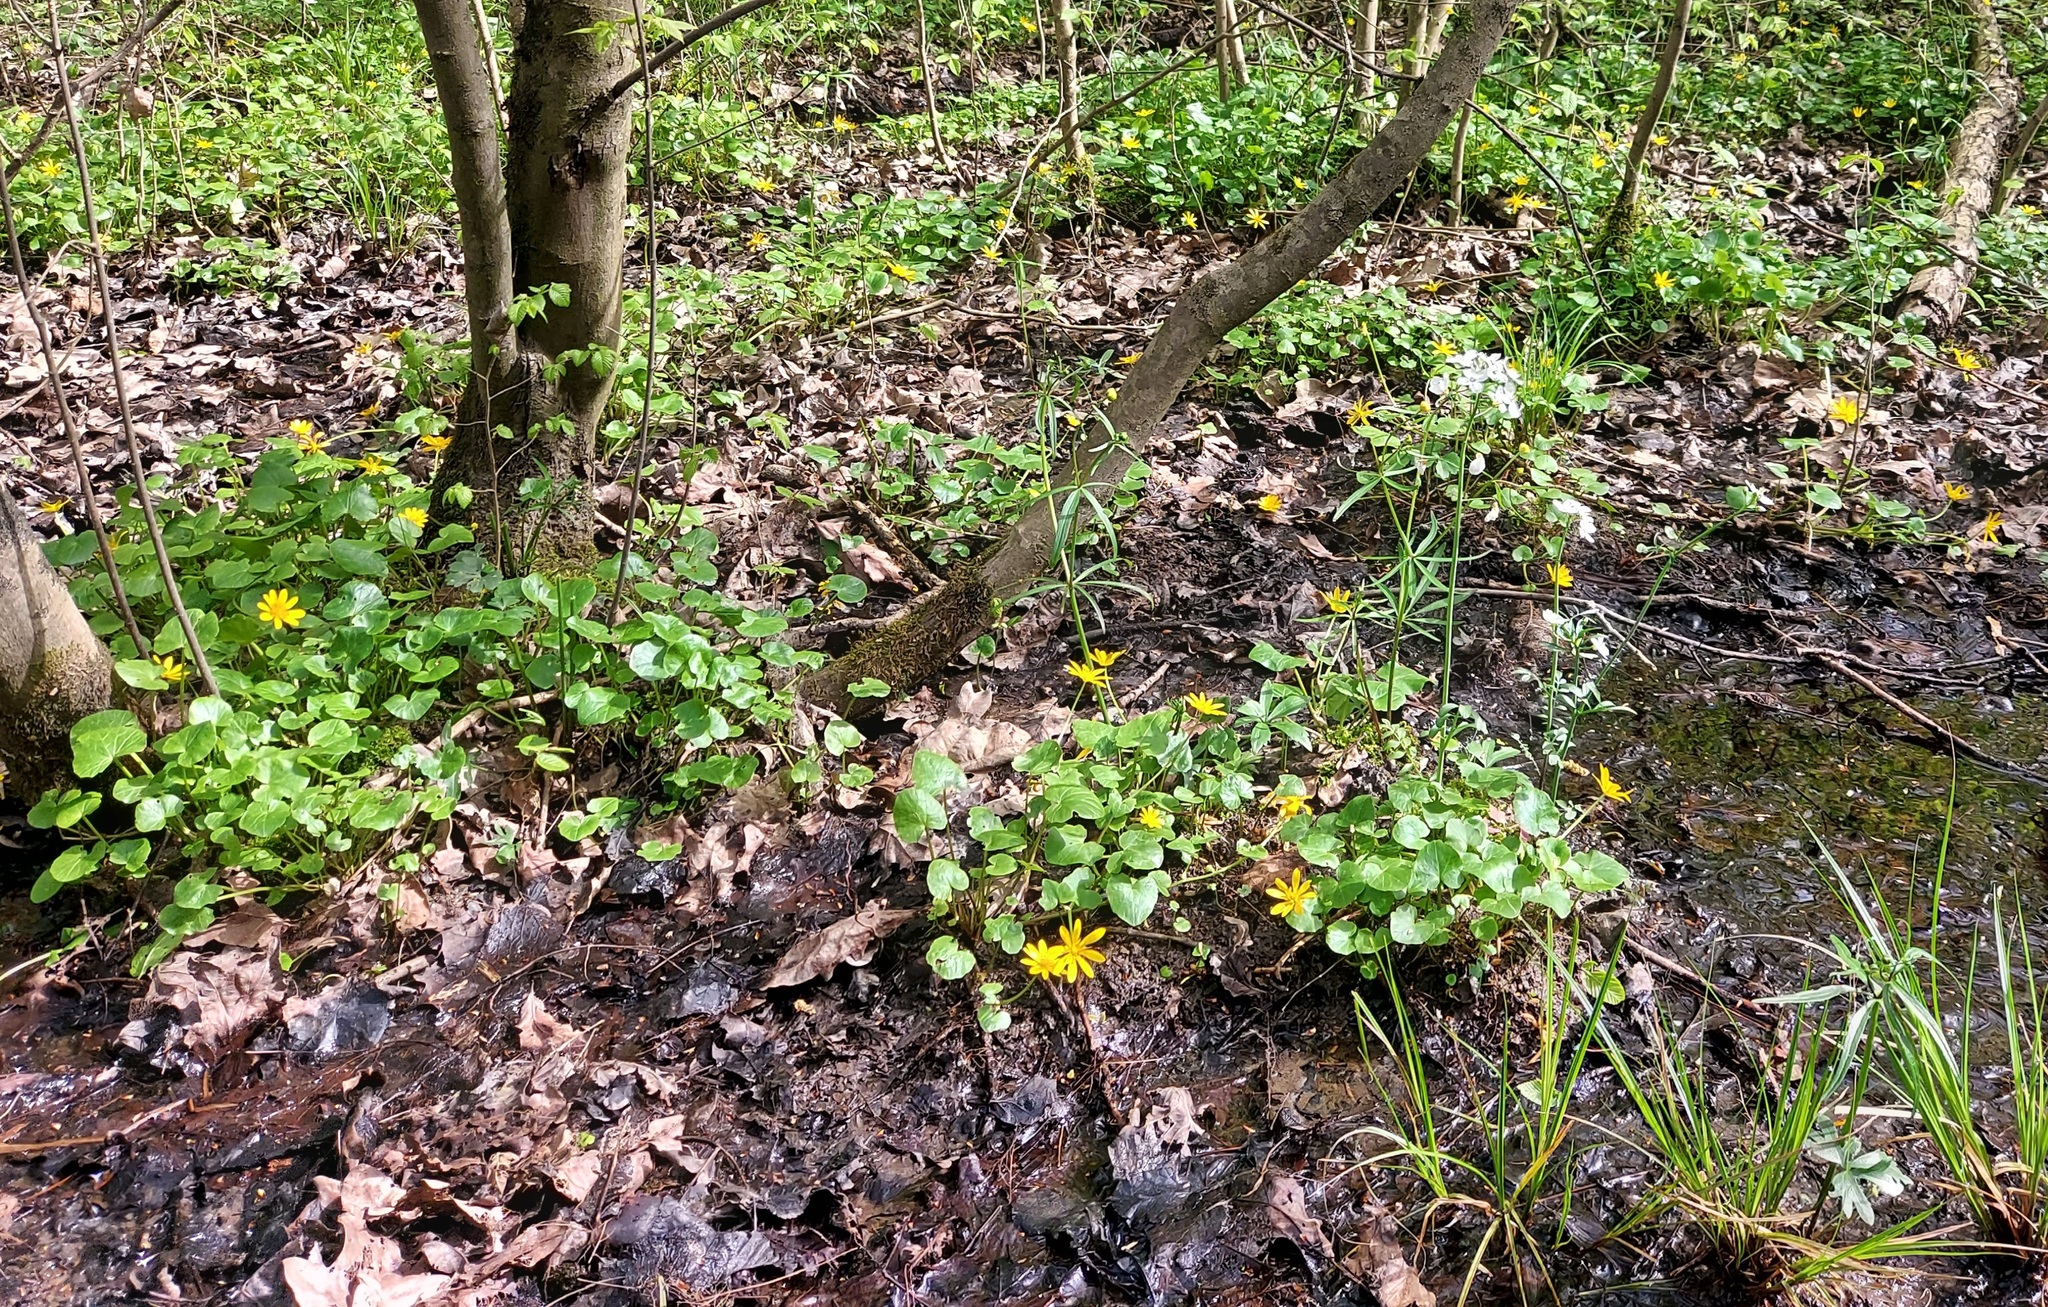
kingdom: Plantae
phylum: Tracheophyta
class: Magnoliopsida
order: Ranunculales
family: Ranunculaceae
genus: Ficaria
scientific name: Ficaria verna
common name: Lesser celandine
